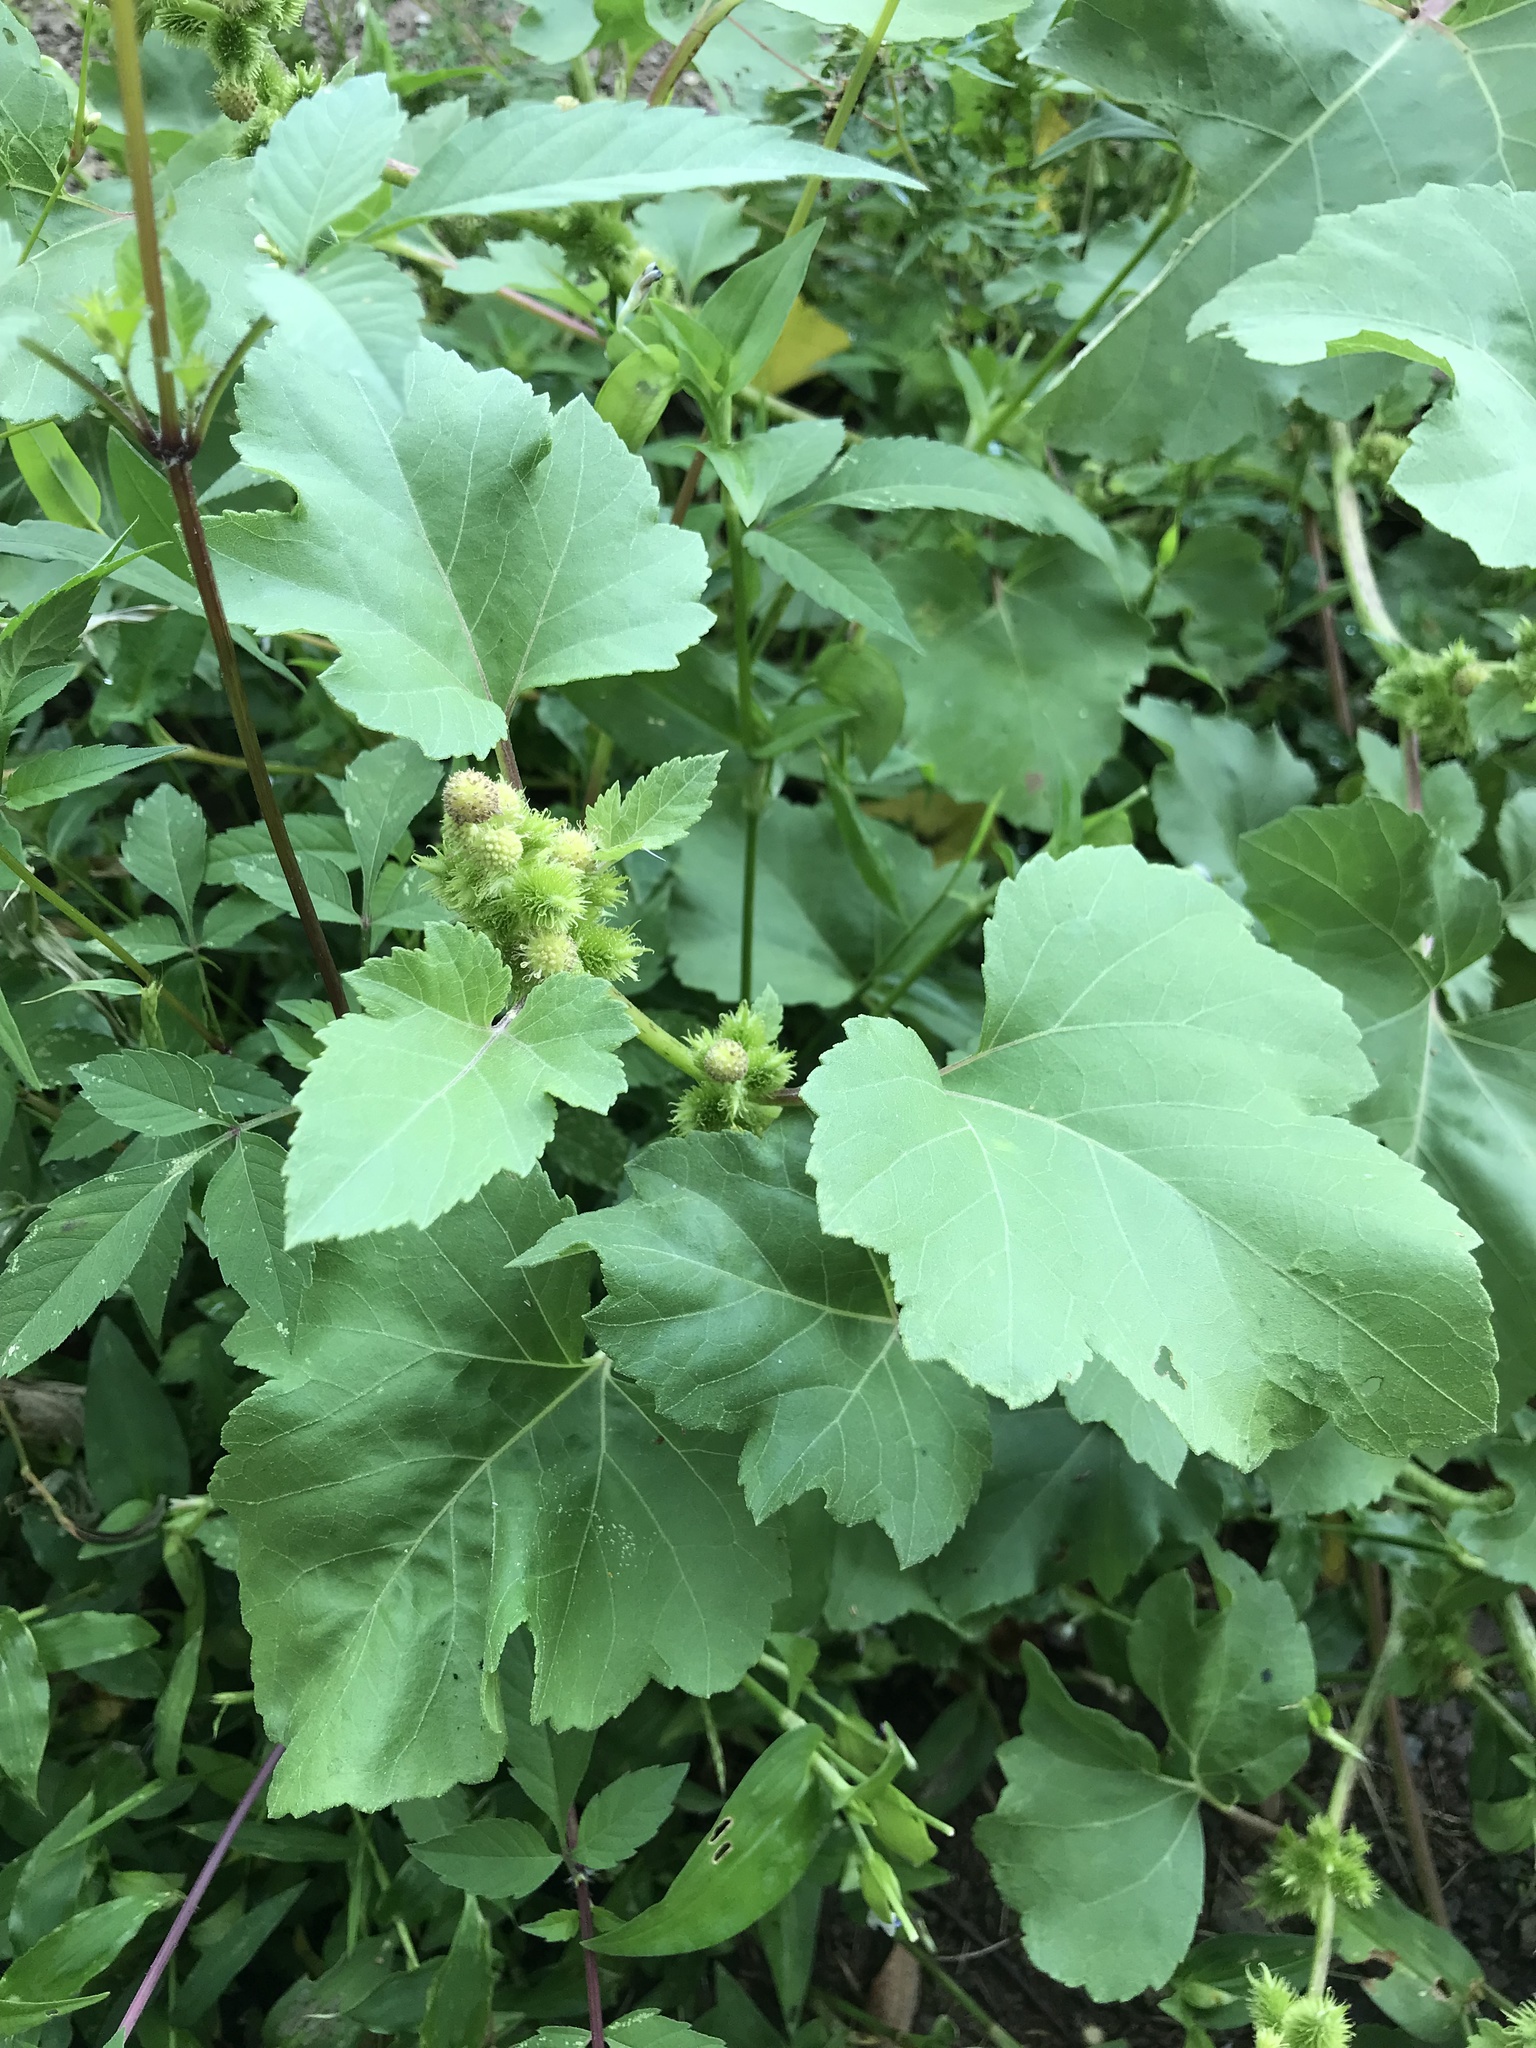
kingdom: Plantae
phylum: Tracheophyta
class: Magnoliopsida
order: Asterales
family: Asteraceae
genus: Xanthium
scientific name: Xanthium strumarium
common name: Rough cocklebur
